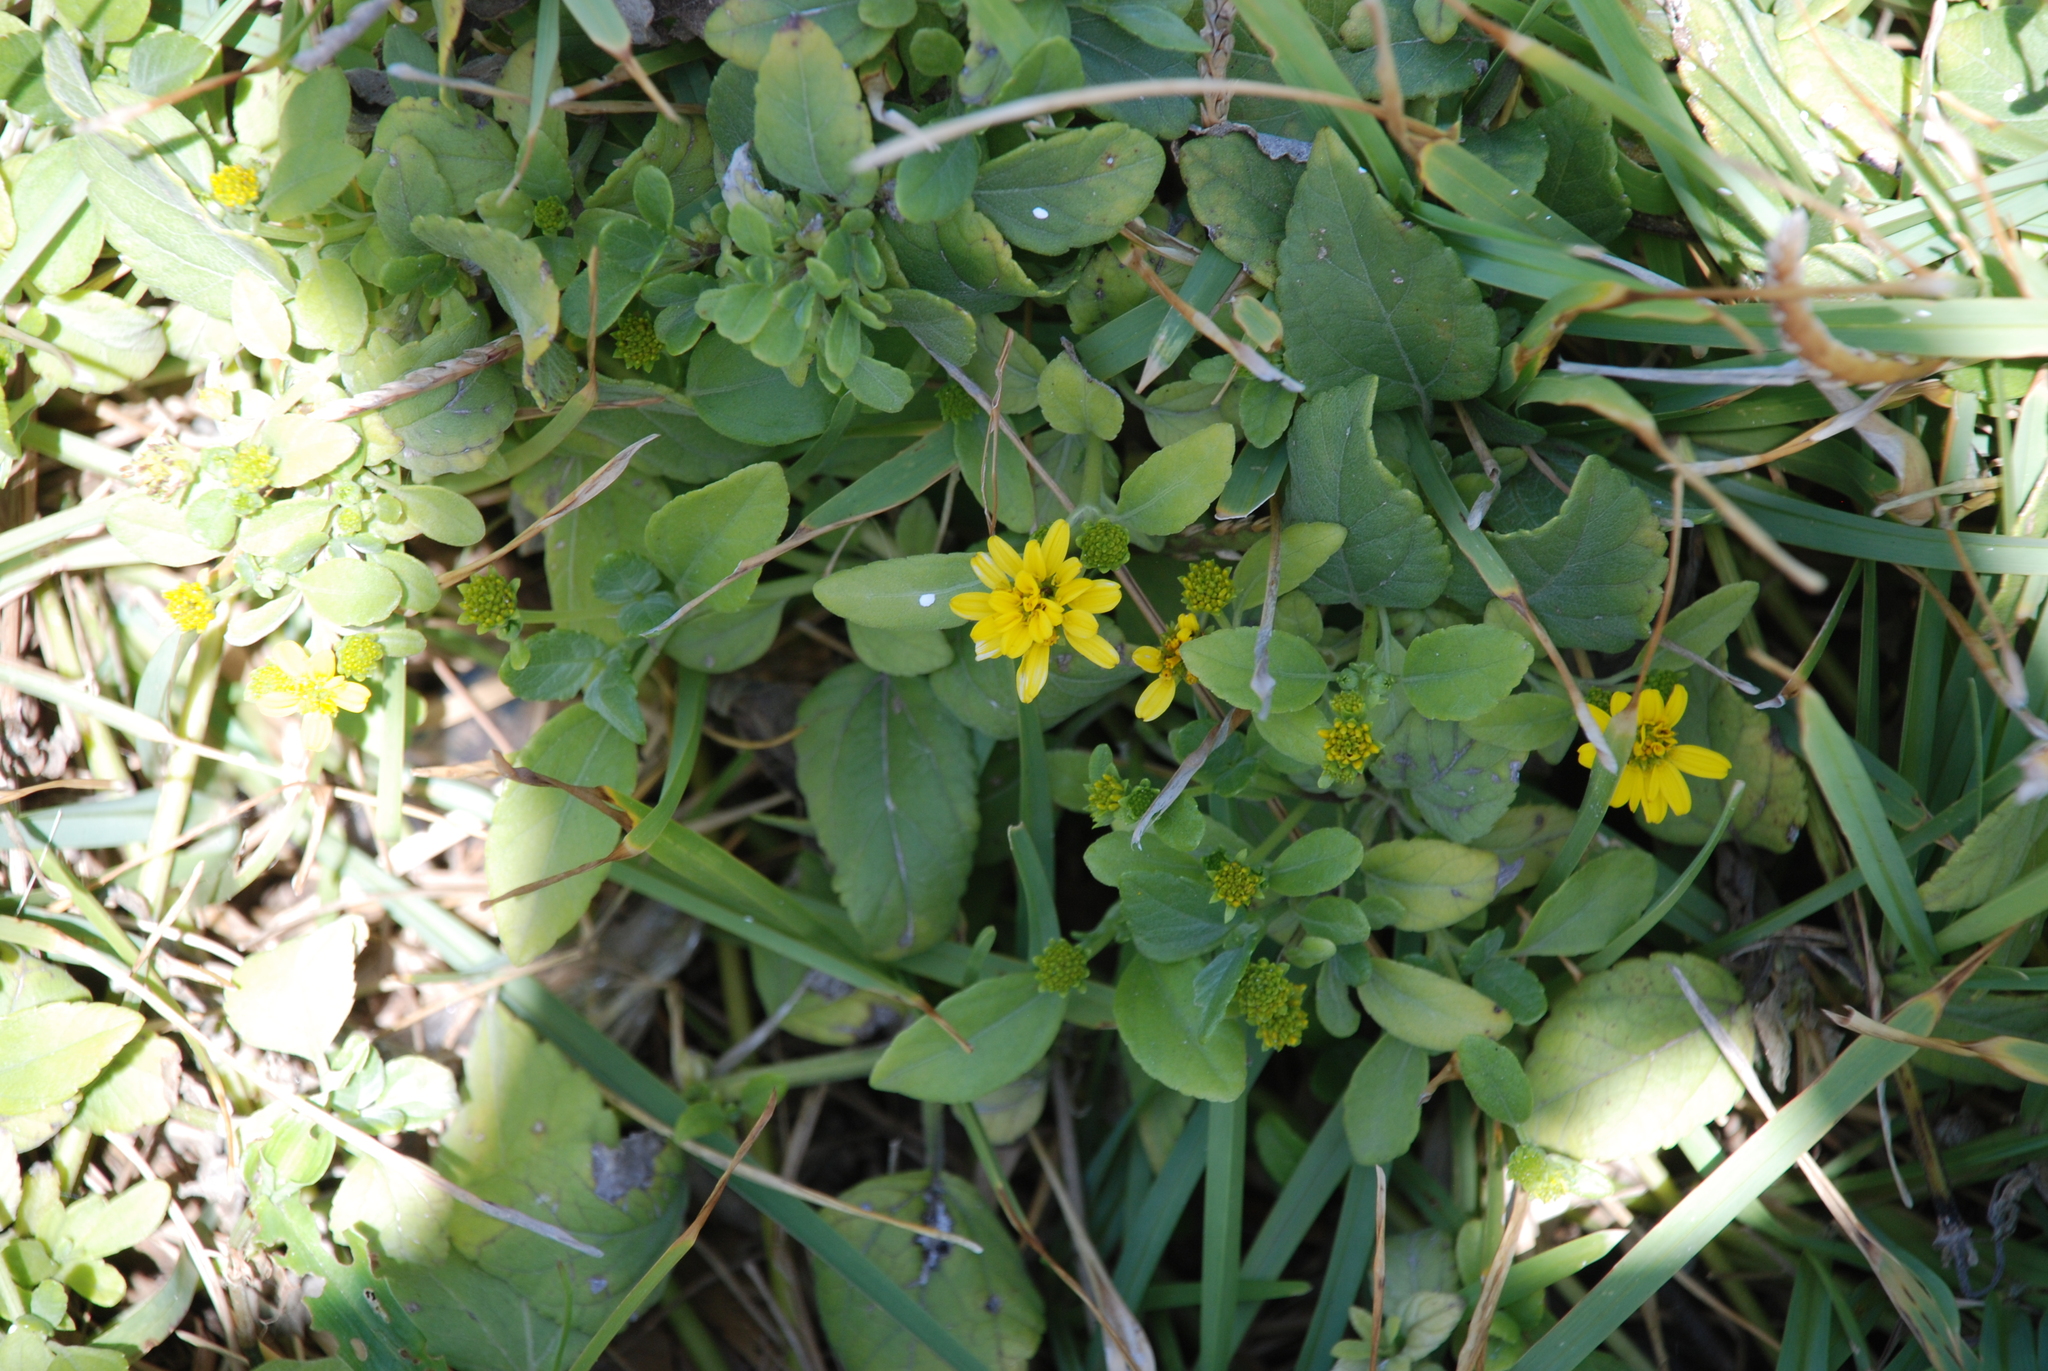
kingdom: Plantae
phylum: Tracheophyta
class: Magnoliopsida
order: Asterales
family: Asteraceae
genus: Wollastonia
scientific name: Wollastonia uniflora
